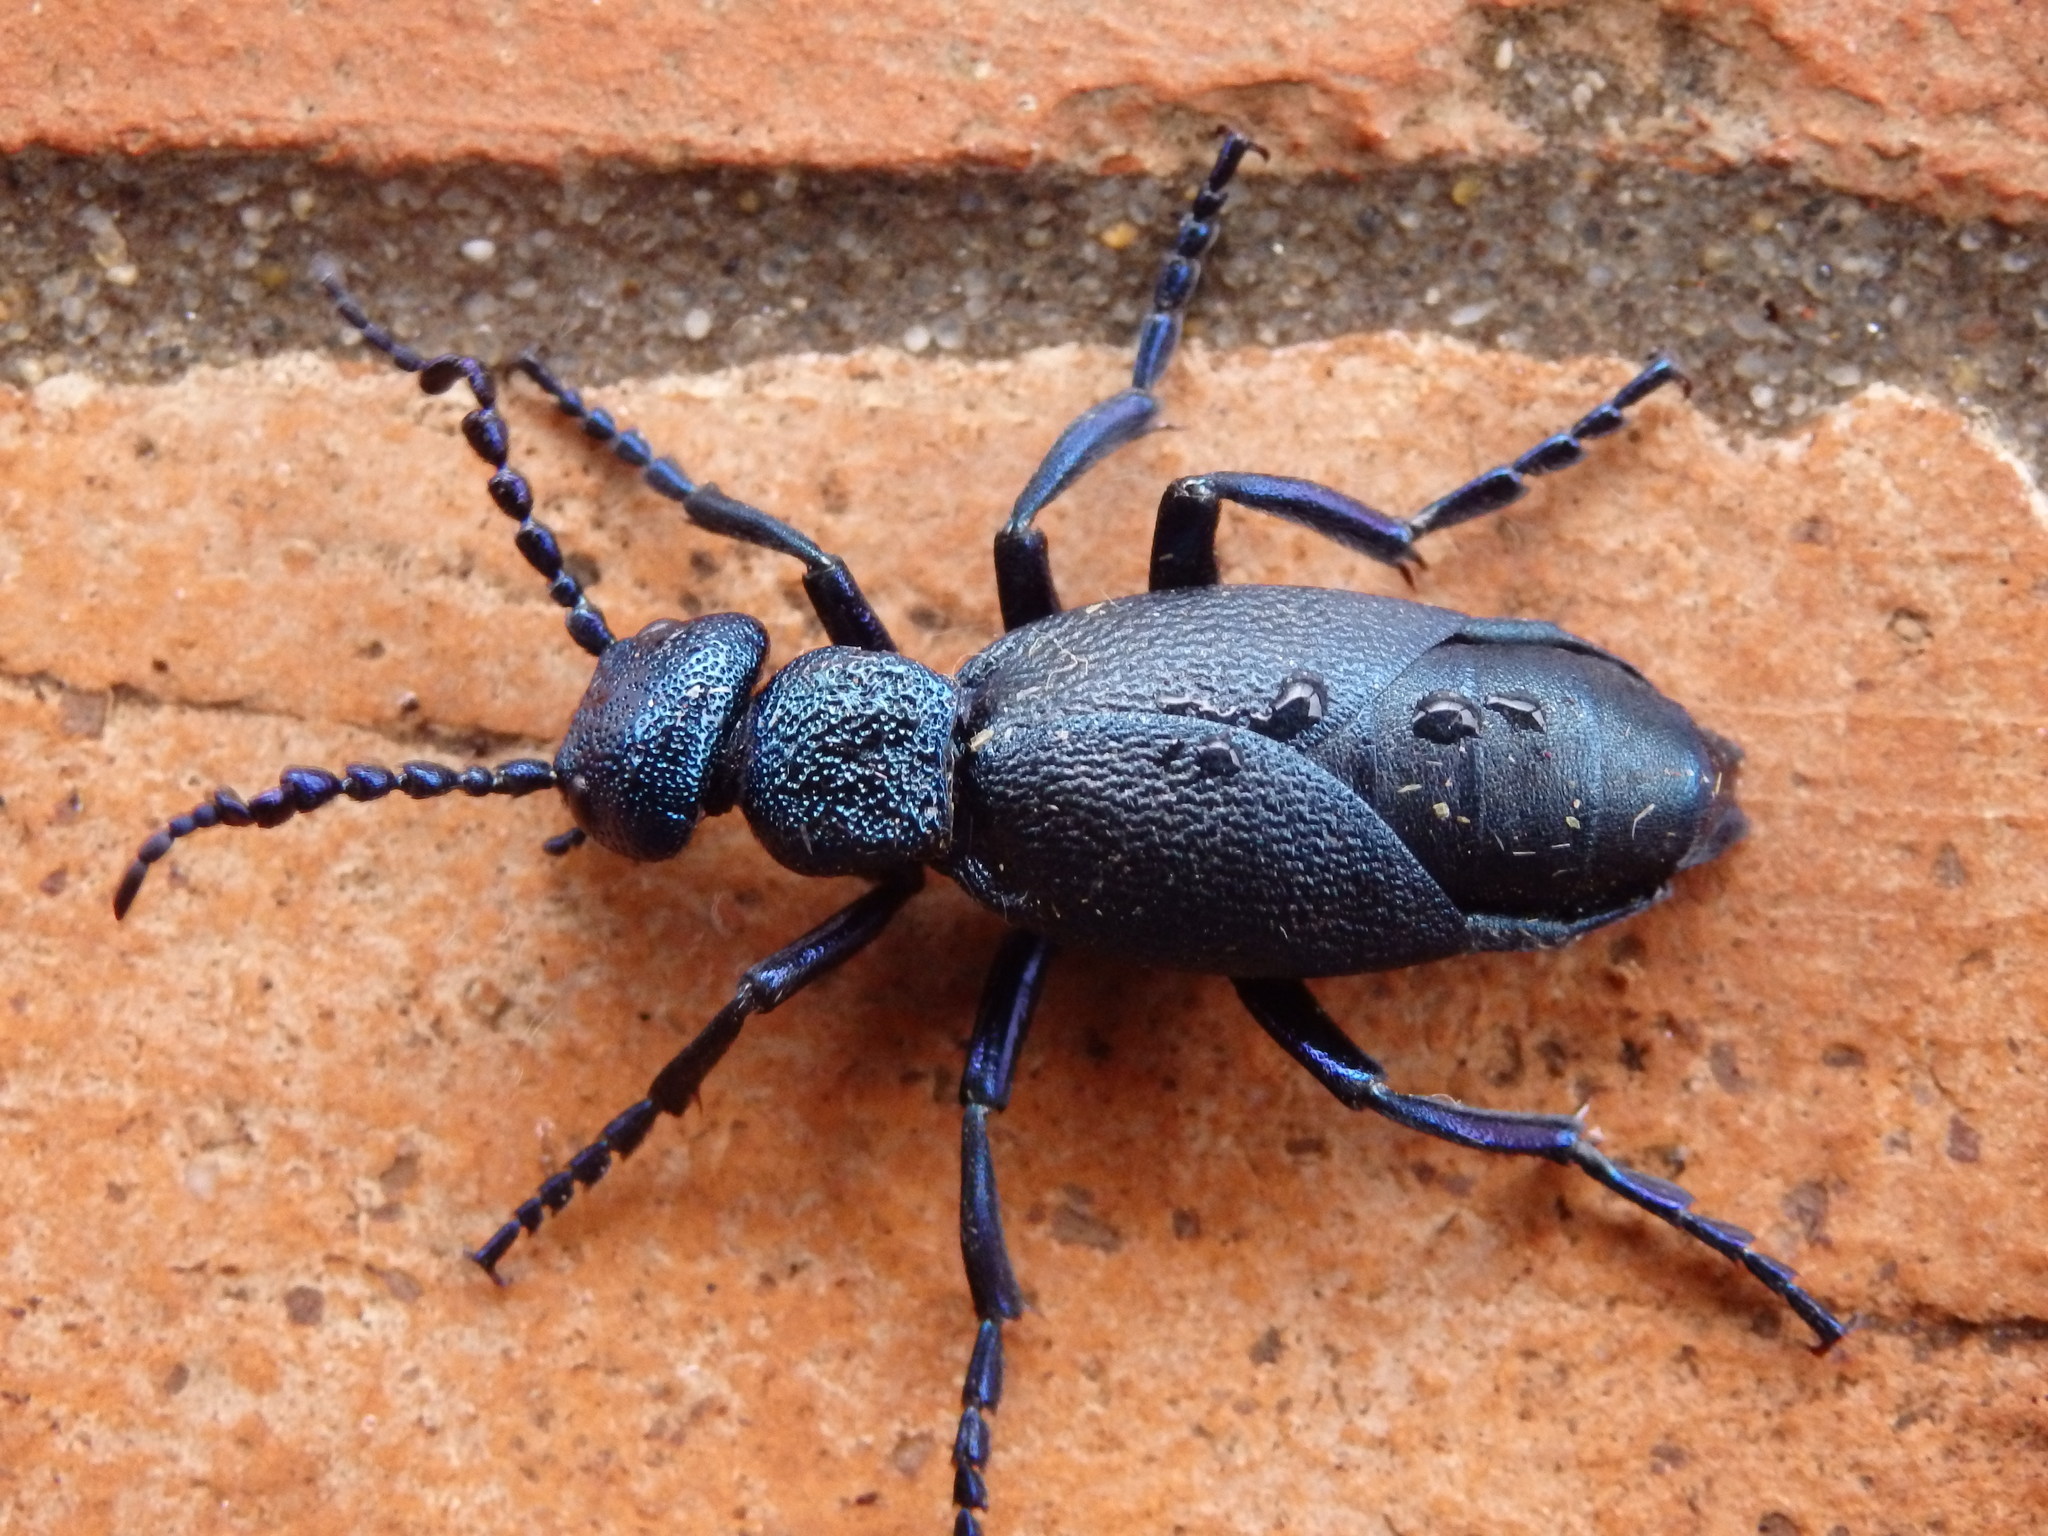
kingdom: Animalia
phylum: Arthropoda
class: Insecta
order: Coleoptera
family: Meloidae
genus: Meloe
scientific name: Meloe proscarabaeus
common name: Black oil-beetle
